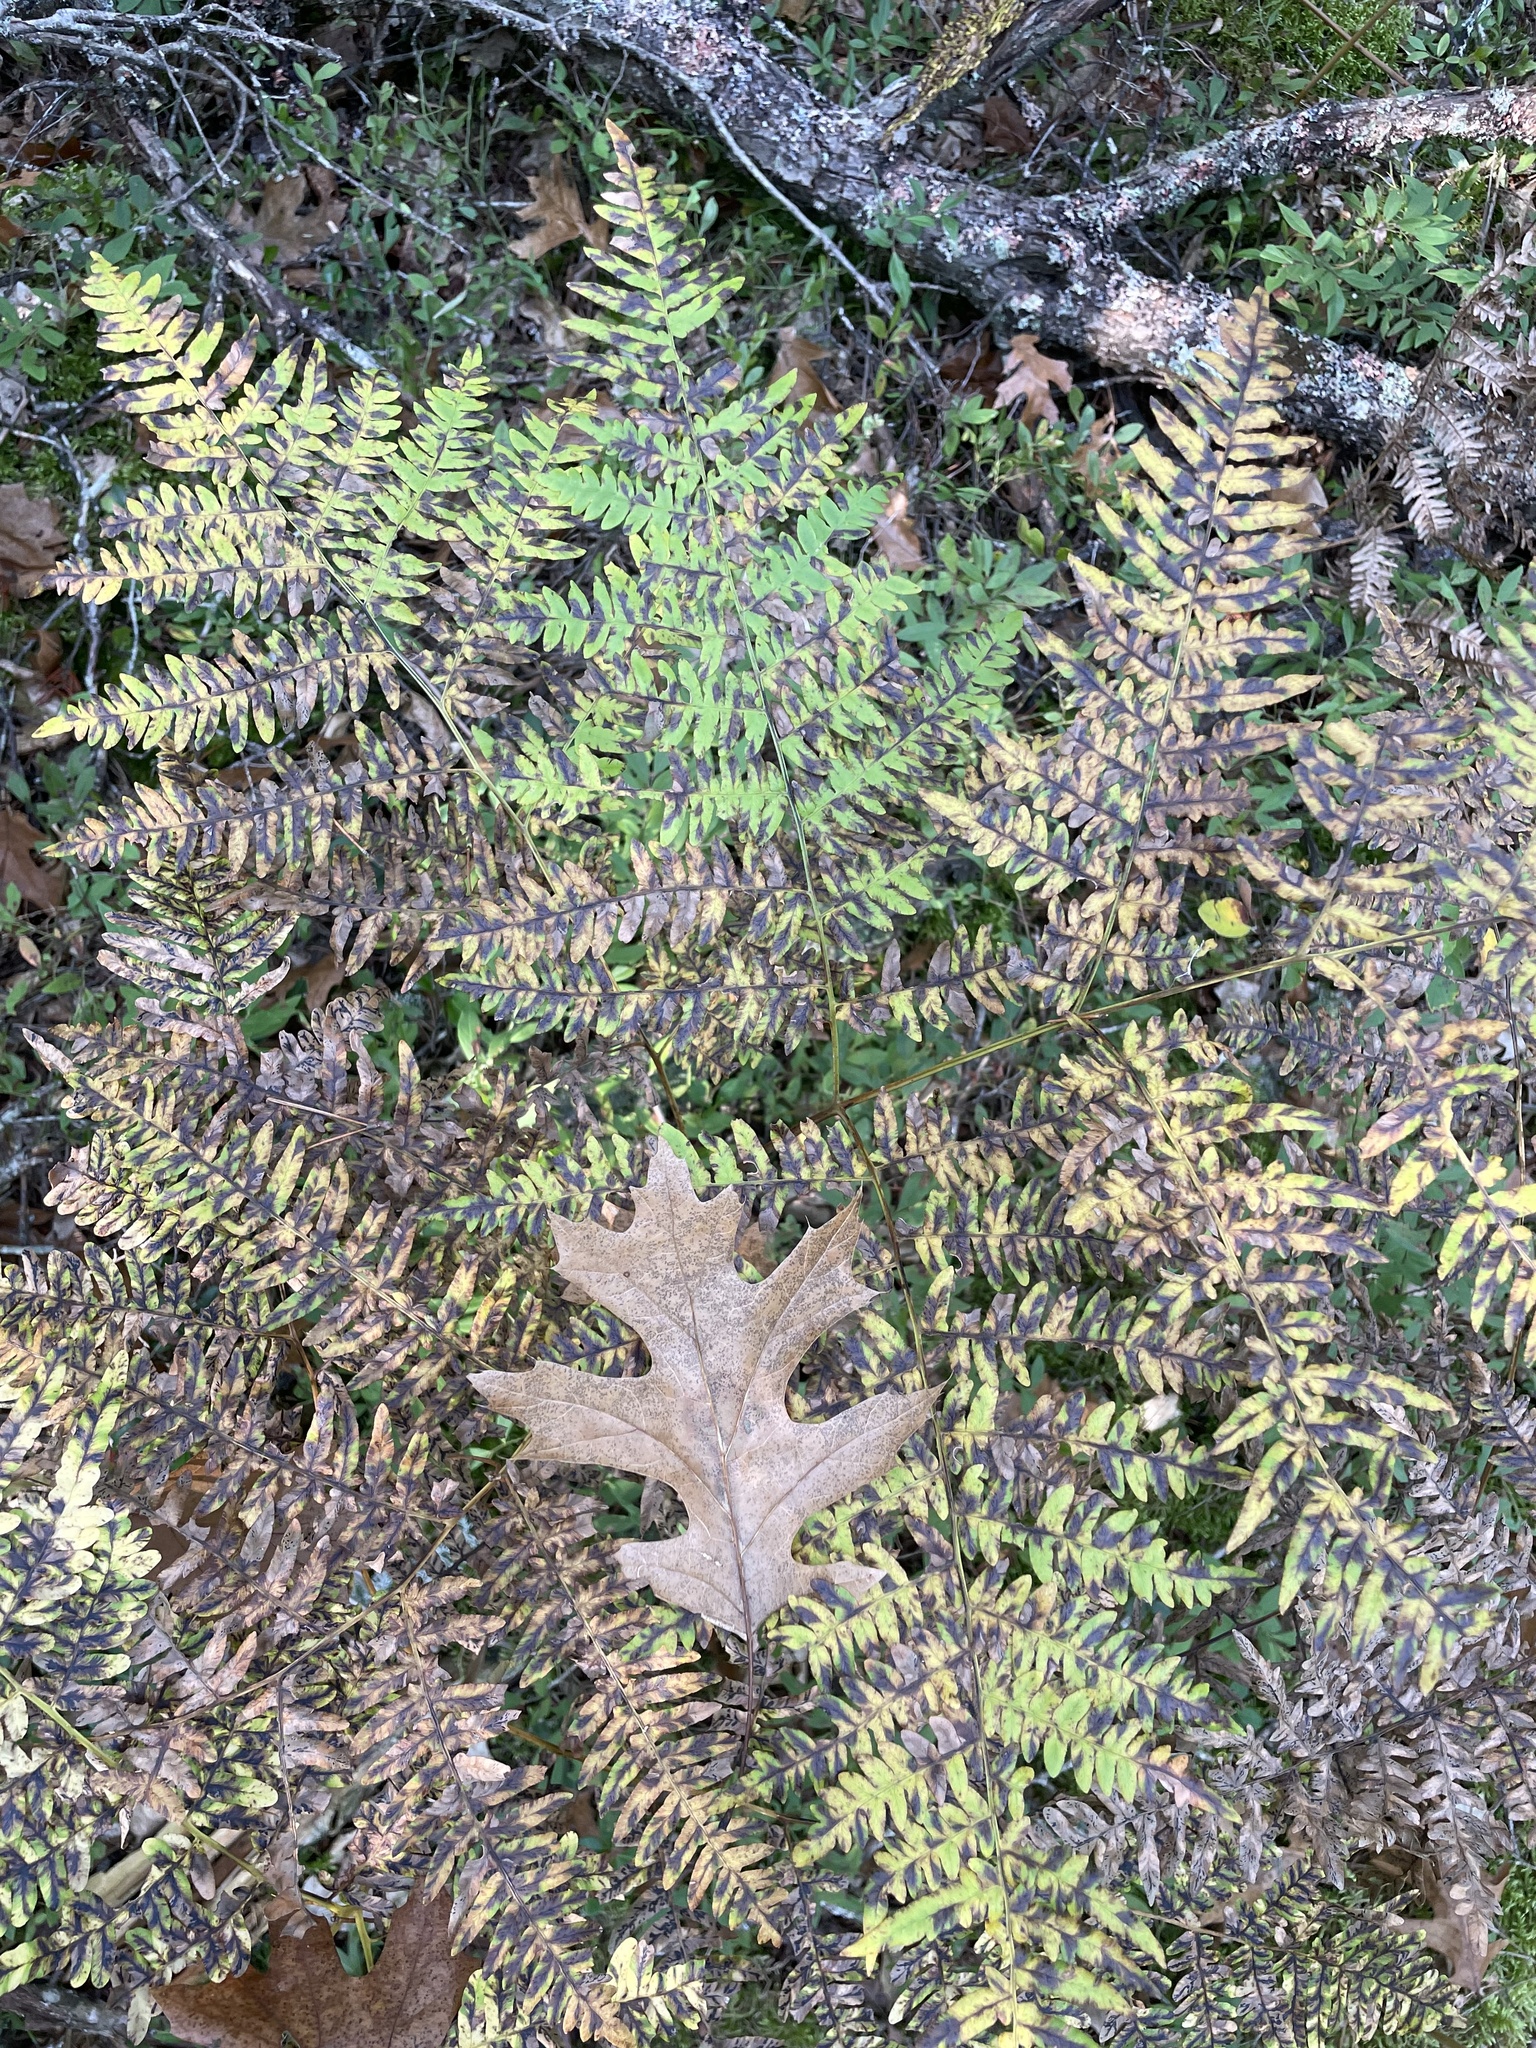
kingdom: Plantae
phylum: Tracheophyta
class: Polypodiopsida
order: Polypodiales
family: Dennstaedtiaceae
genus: Pteridium
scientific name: Pteridium aquilinum
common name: Bracken
